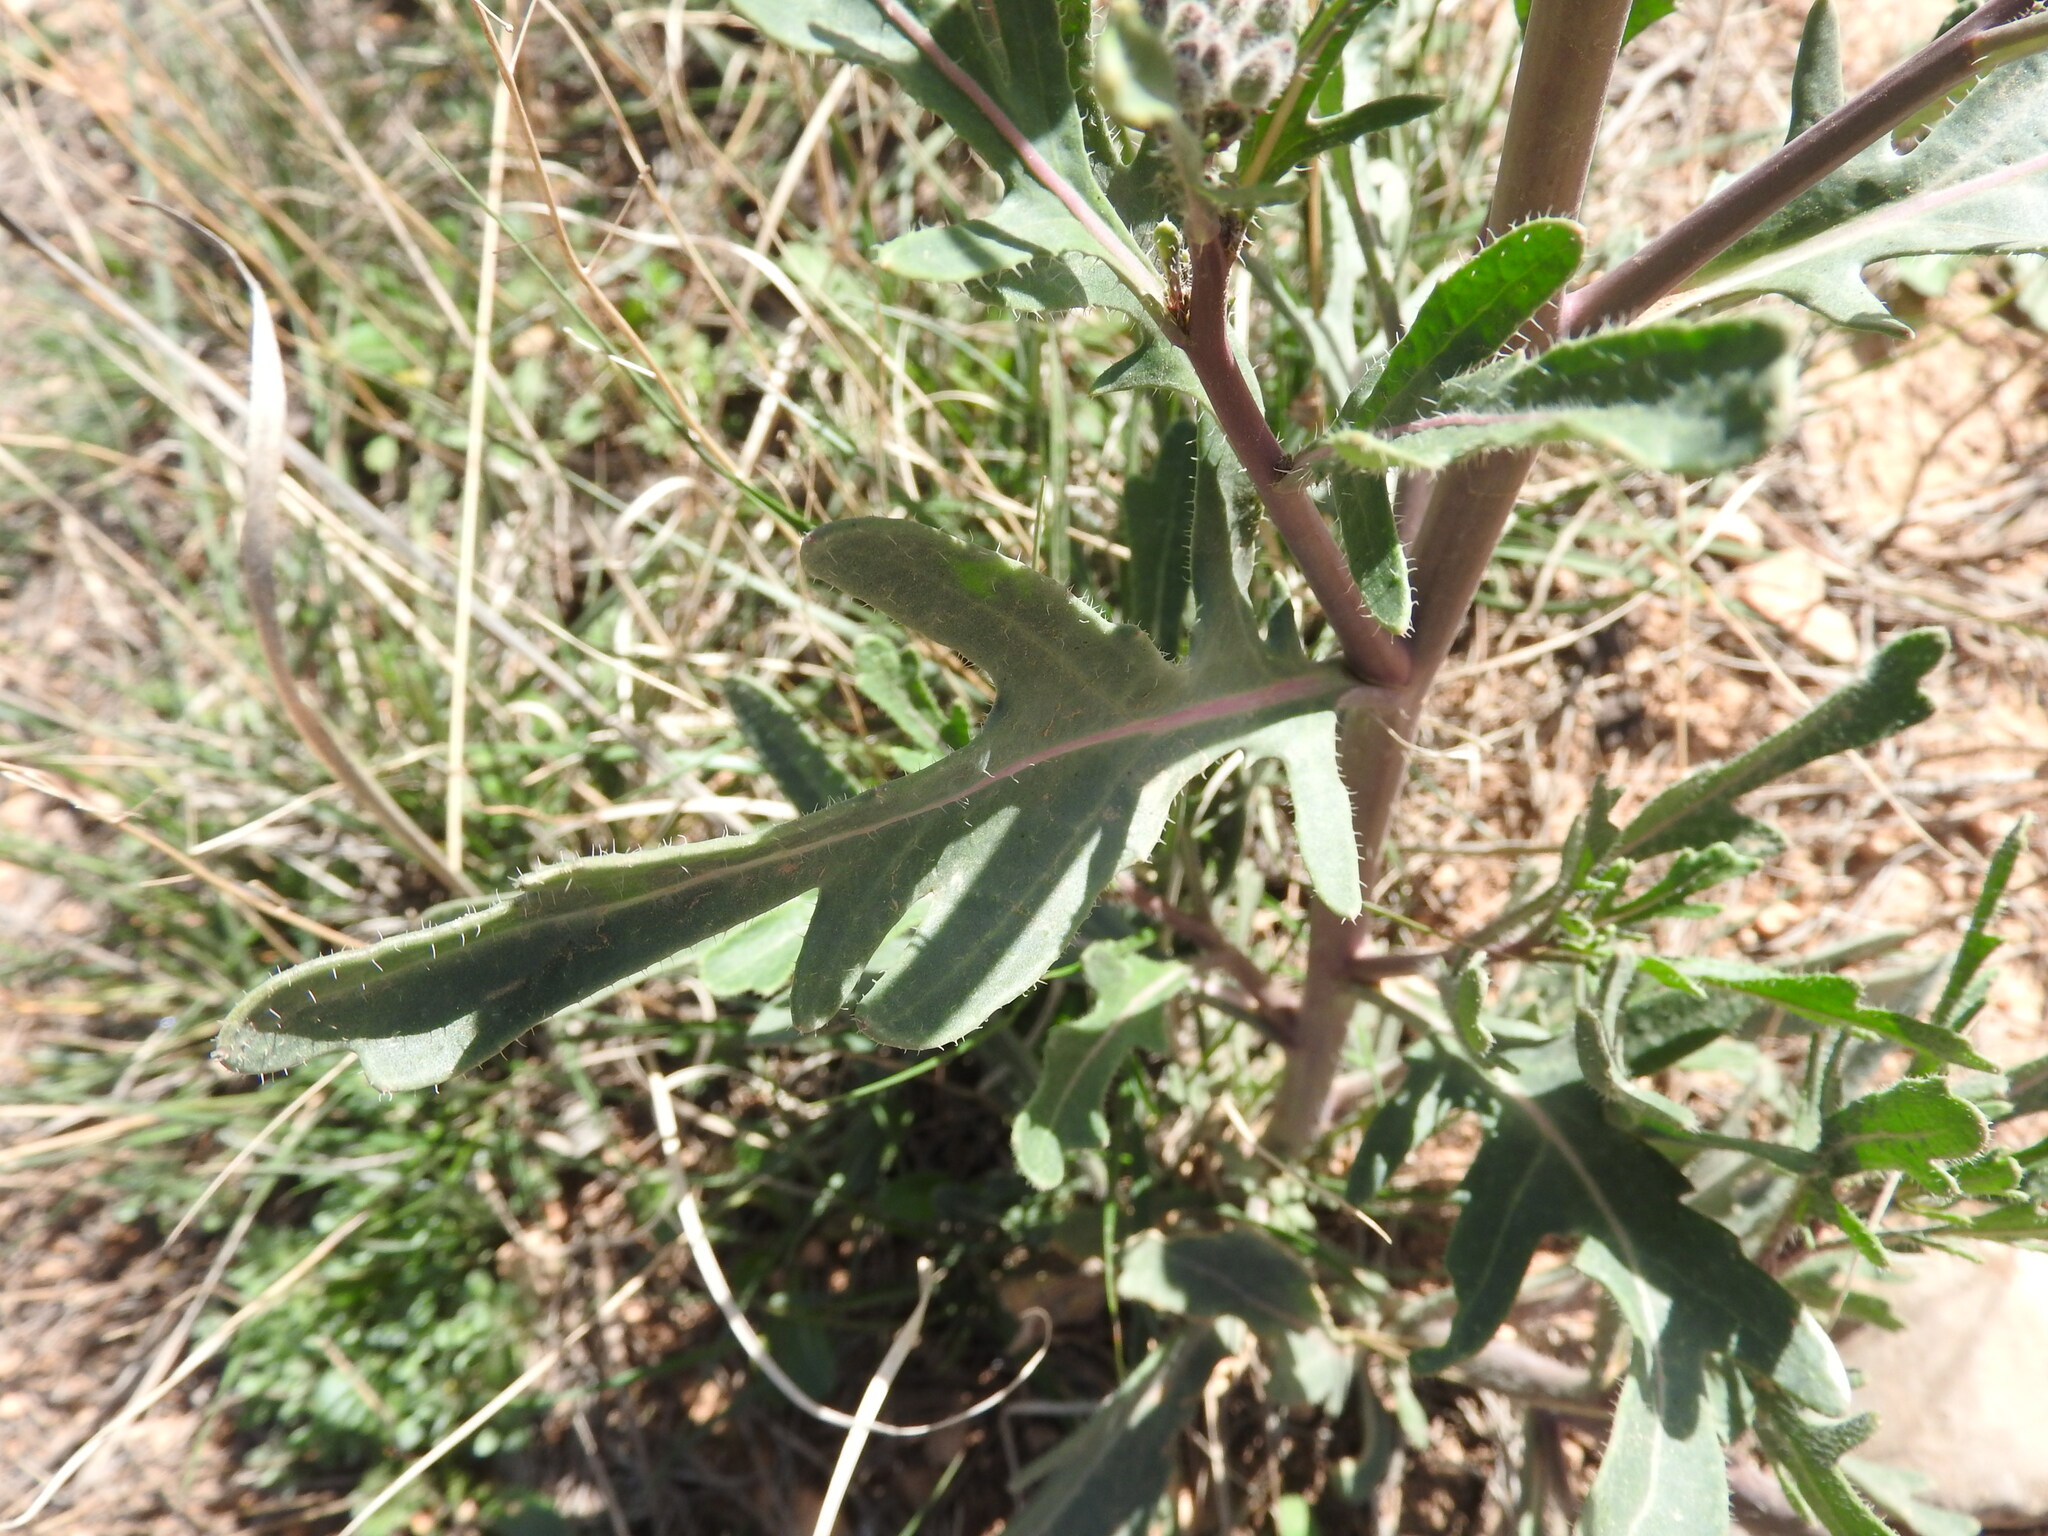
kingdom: Plantae
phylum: Tracheophyta
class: Magnoliopsida
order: Brassicales
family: Brassicaceae
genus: Diplotaxis
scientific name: Diplotaxis harra
